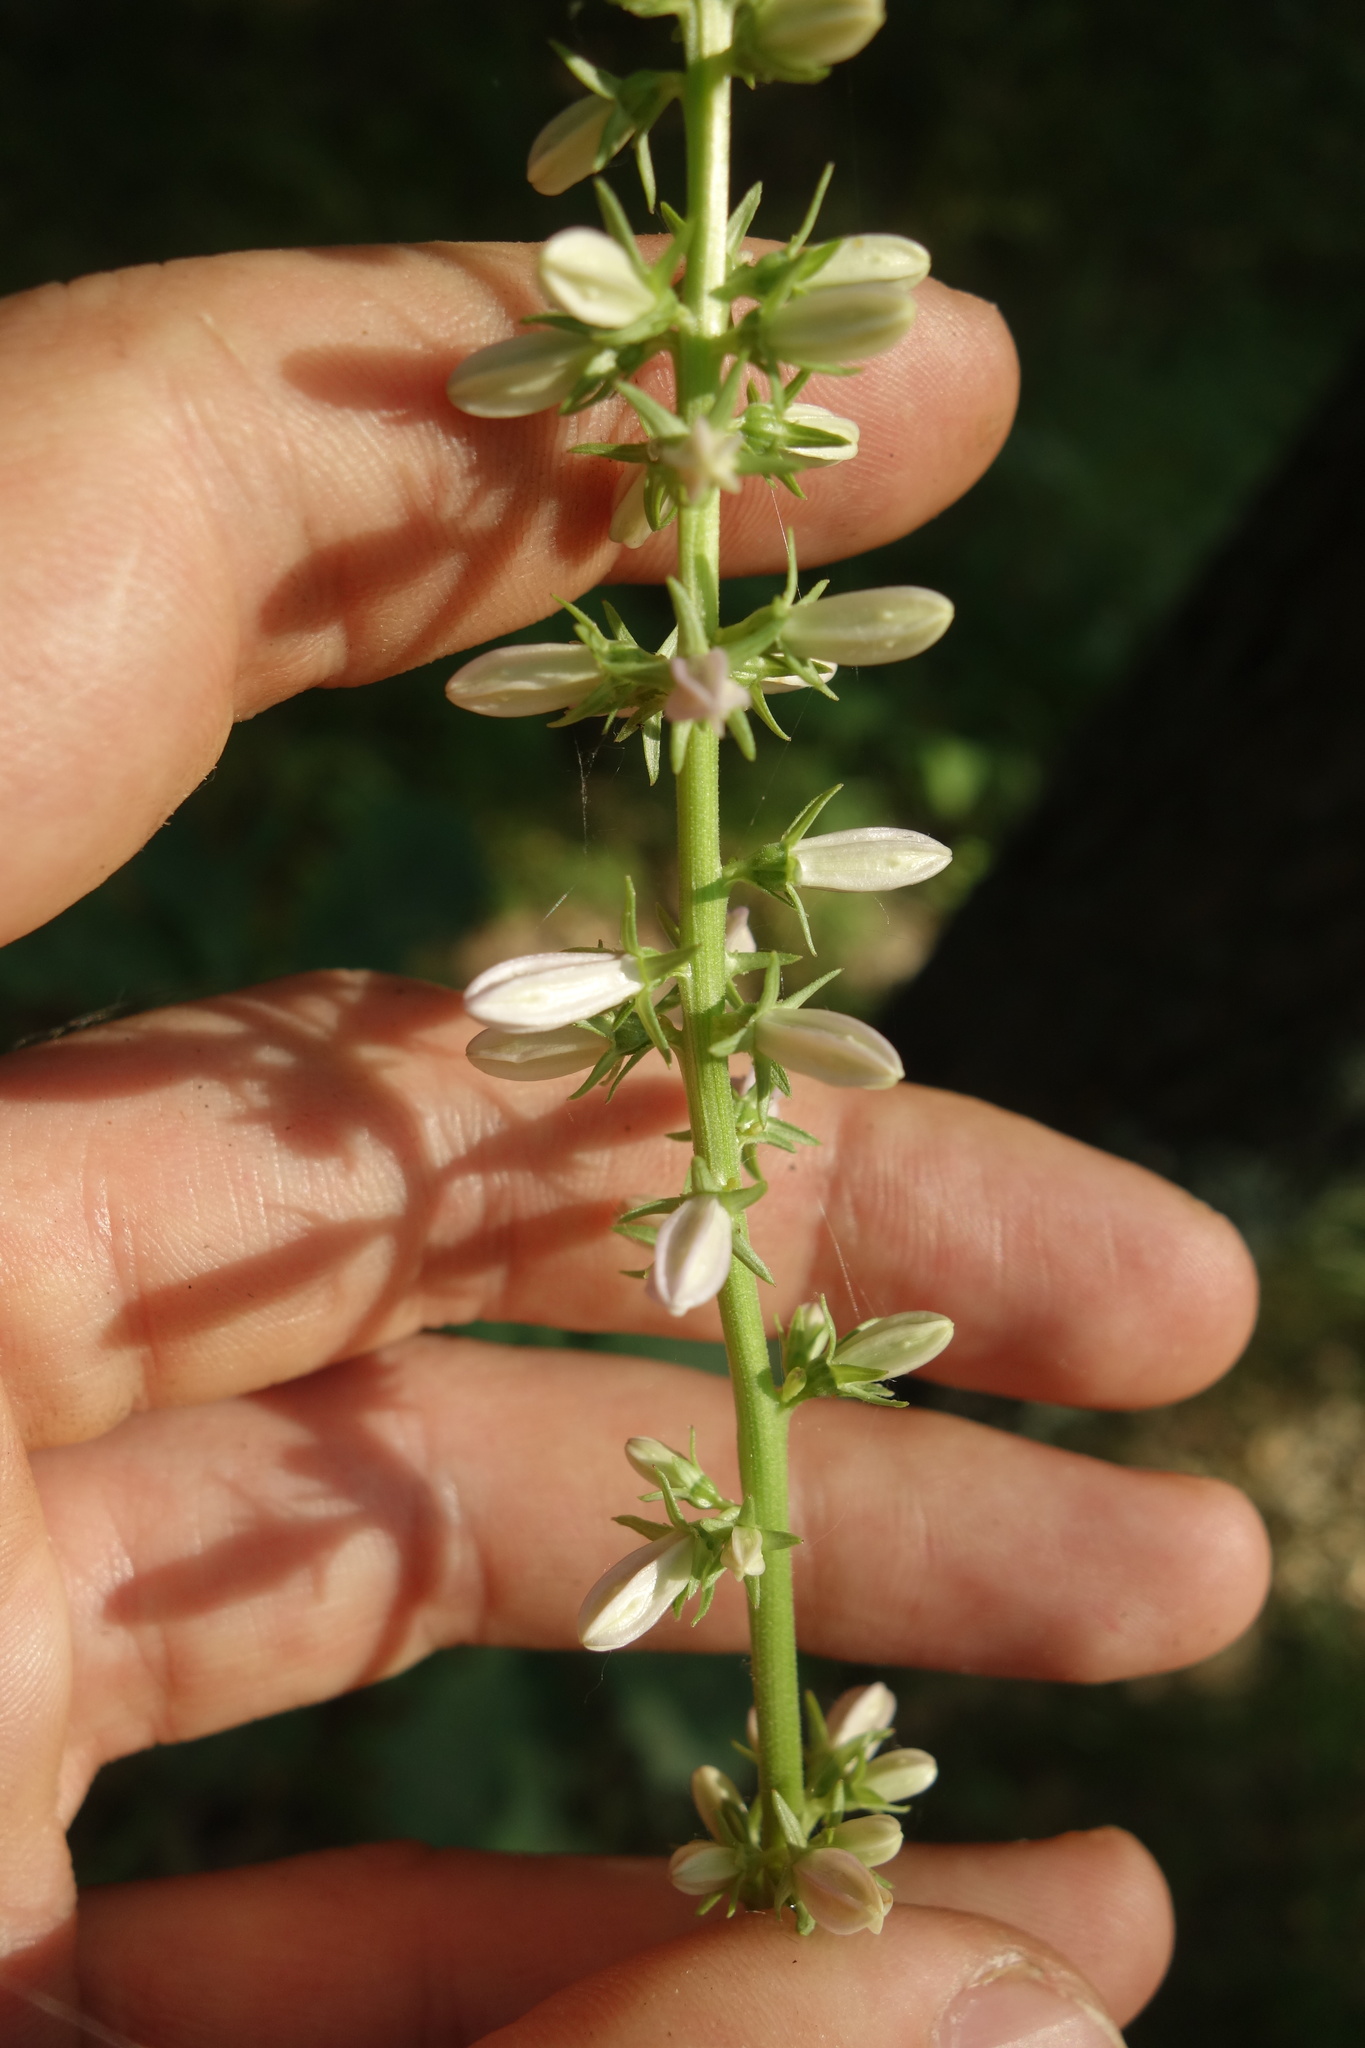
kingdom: Plantae
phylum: Tracheophyta
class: Magnoliopsida
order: Asterales
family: Campanulaceae
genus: Campanula
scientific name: Campanula rapunculoides
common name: Creeping bellflower
